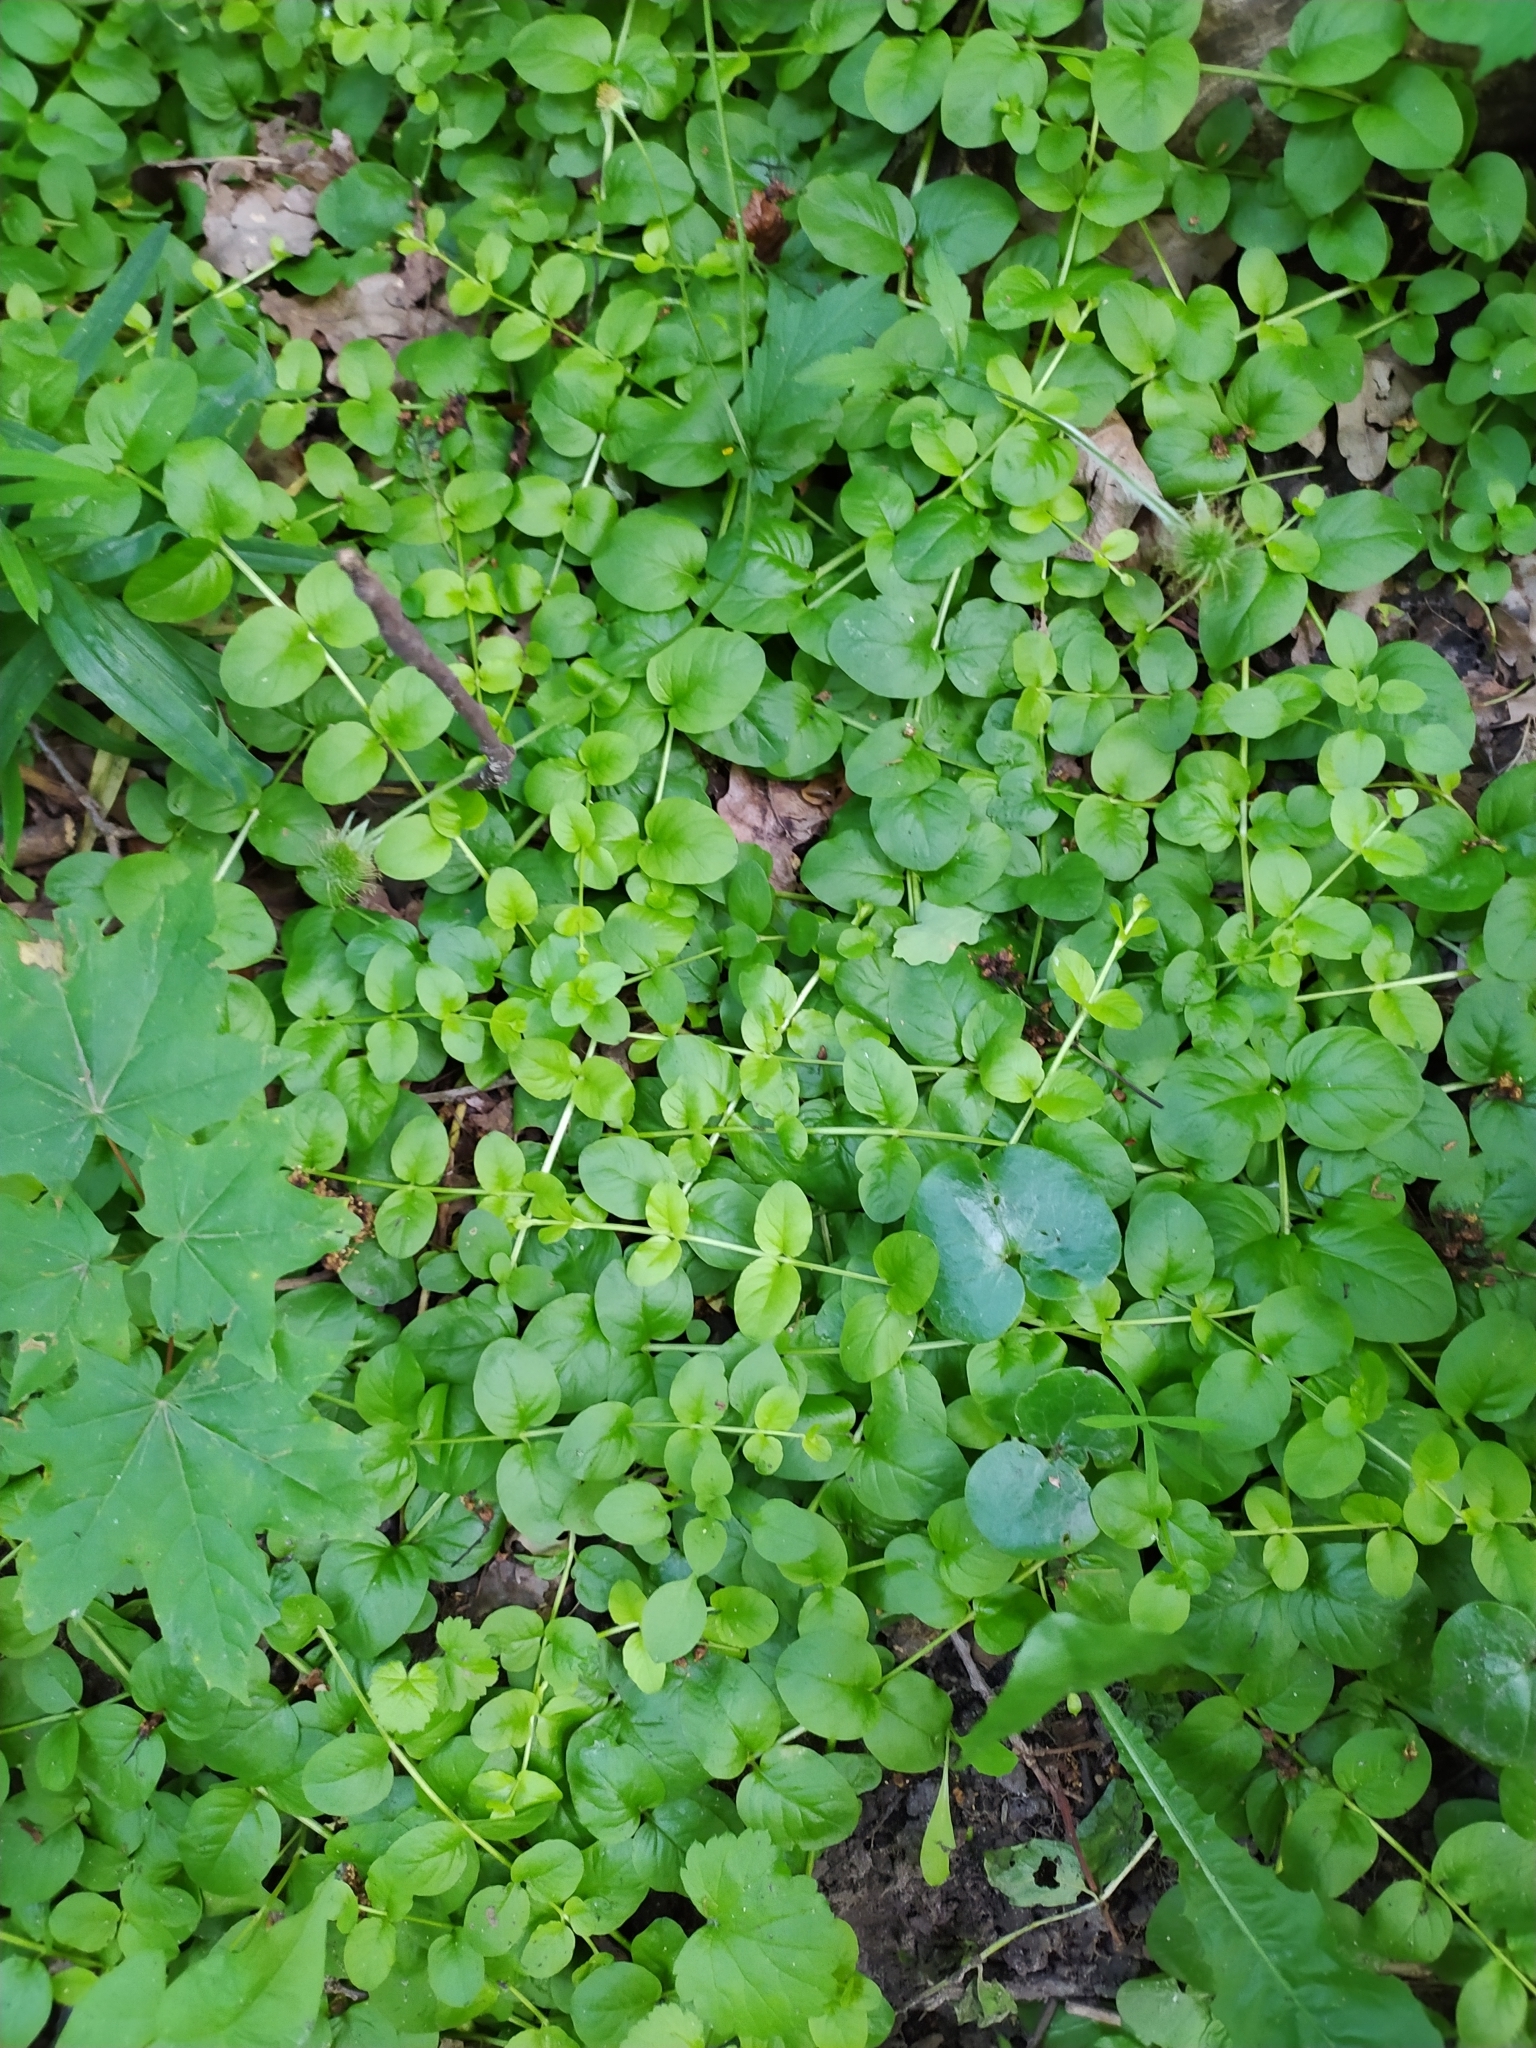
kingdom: Plantae
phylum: Tracheophyta
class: Magnoliopsida
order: Ericales
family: Primulaceae
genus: Lysimachia
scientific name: Lysimachia nummularia
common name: Moneywort
